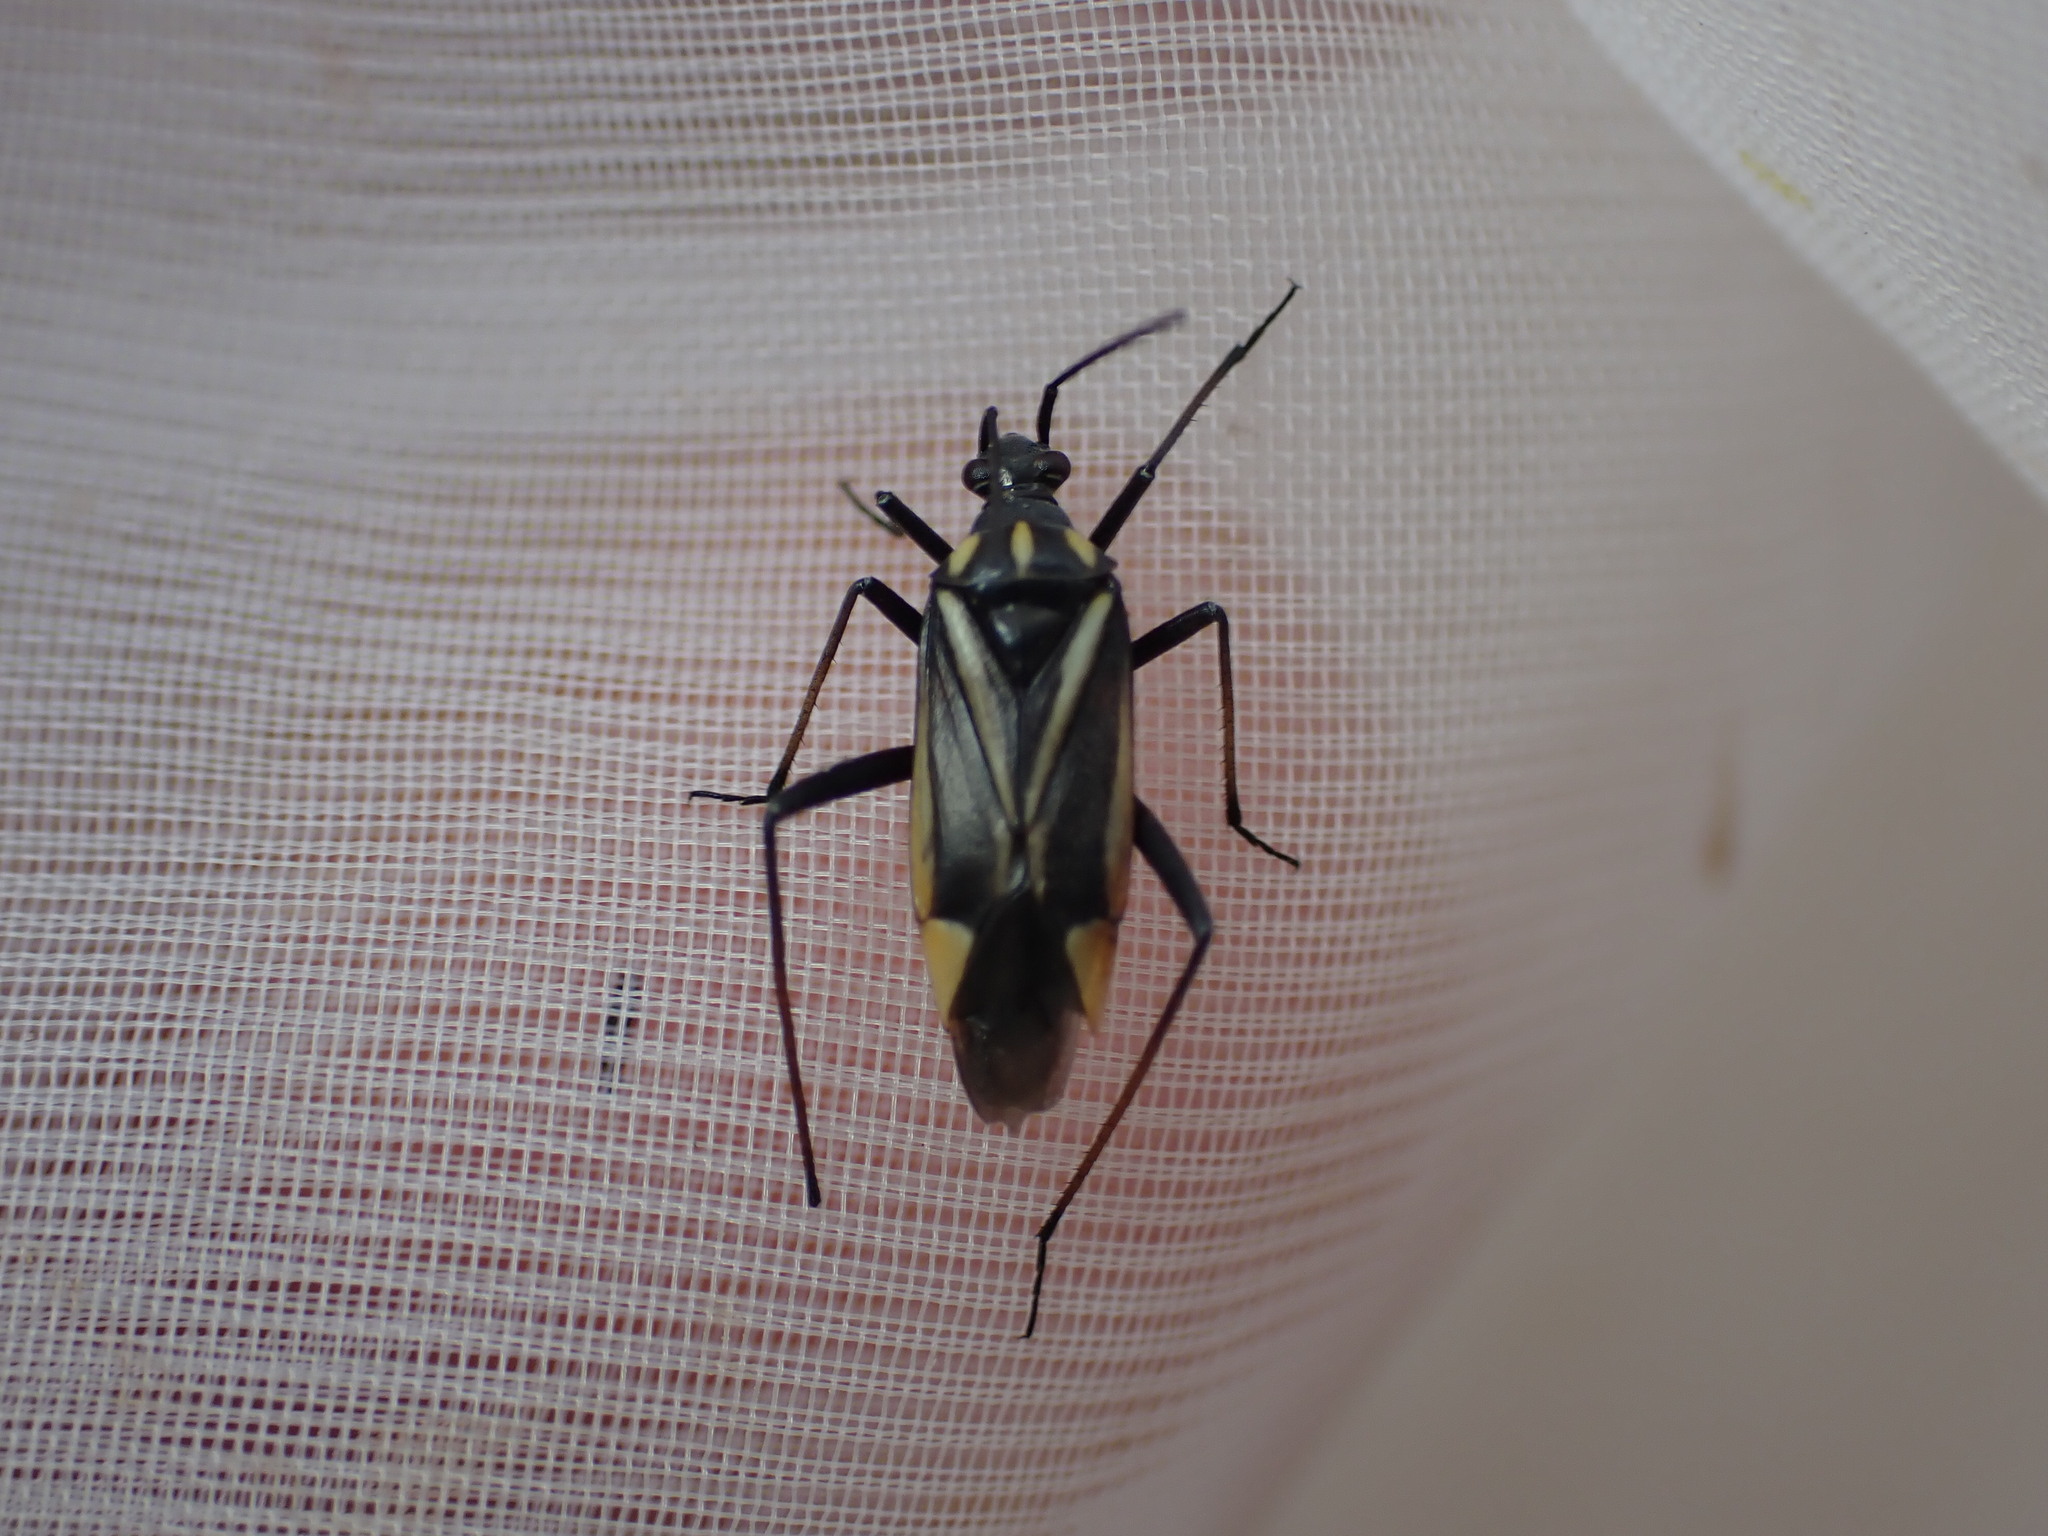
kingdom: Animalia
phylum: Arthropoda
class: Insecta
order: Hemiptera
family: Miridae
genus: Hadrodemus
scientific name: Hadrodemus m-flavum
